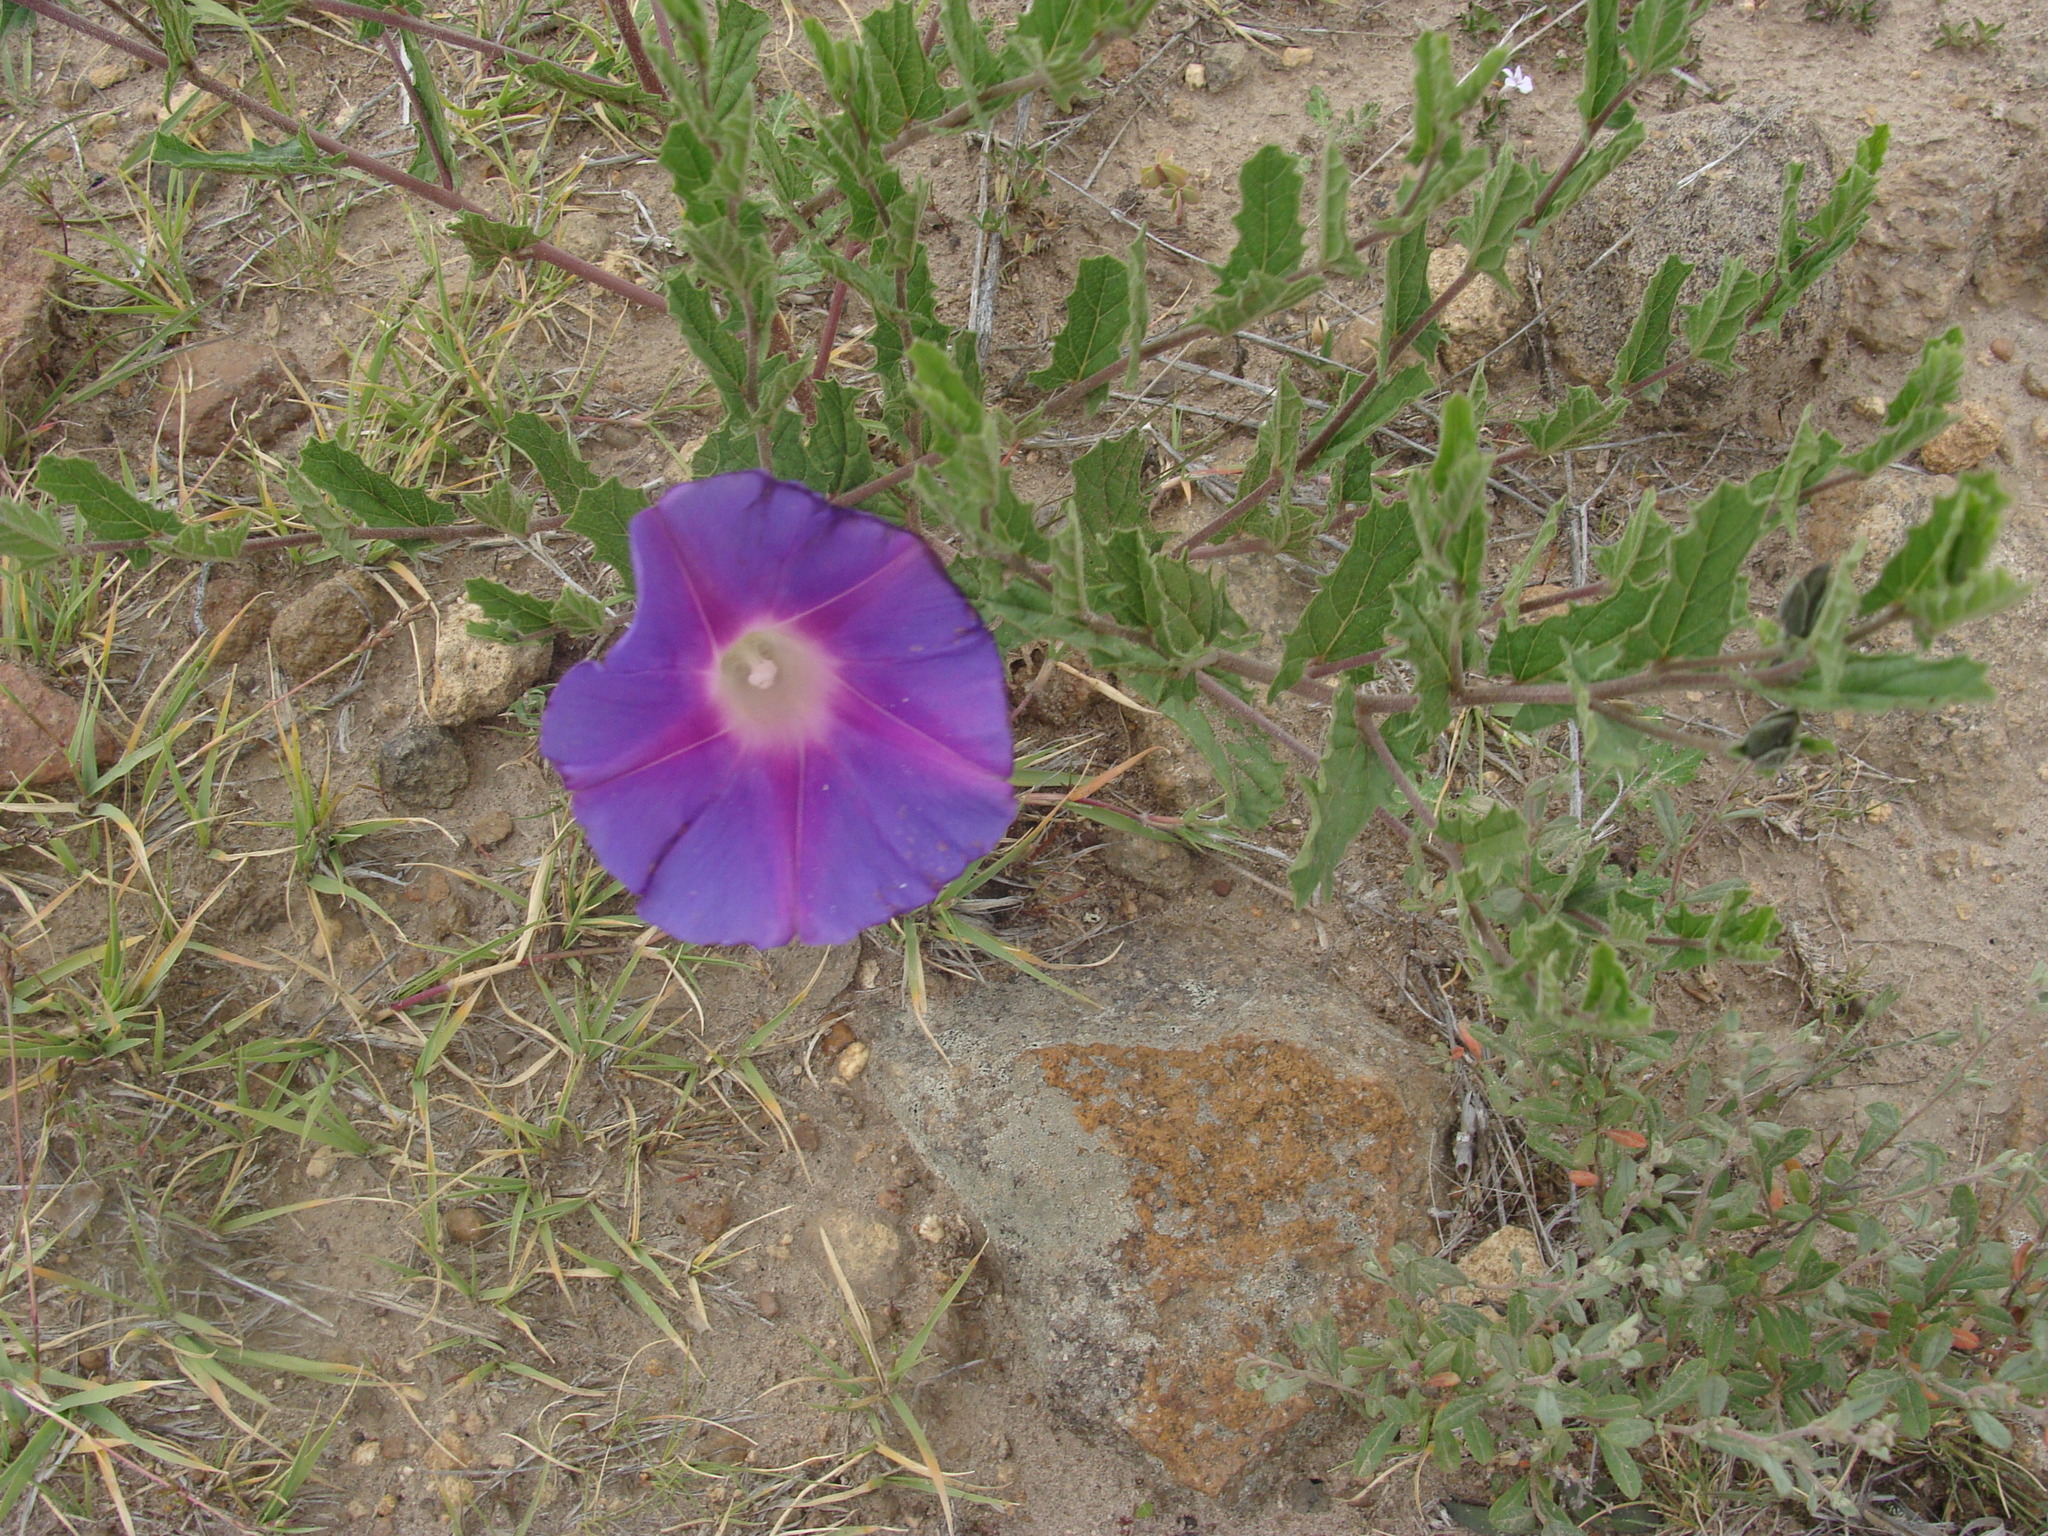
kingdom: Plantae
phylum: Tracheophyta
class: Magnoliopsida
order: Solanales
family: Convolvulaceae
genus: Ipomoea
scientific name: Ipomoea stans
